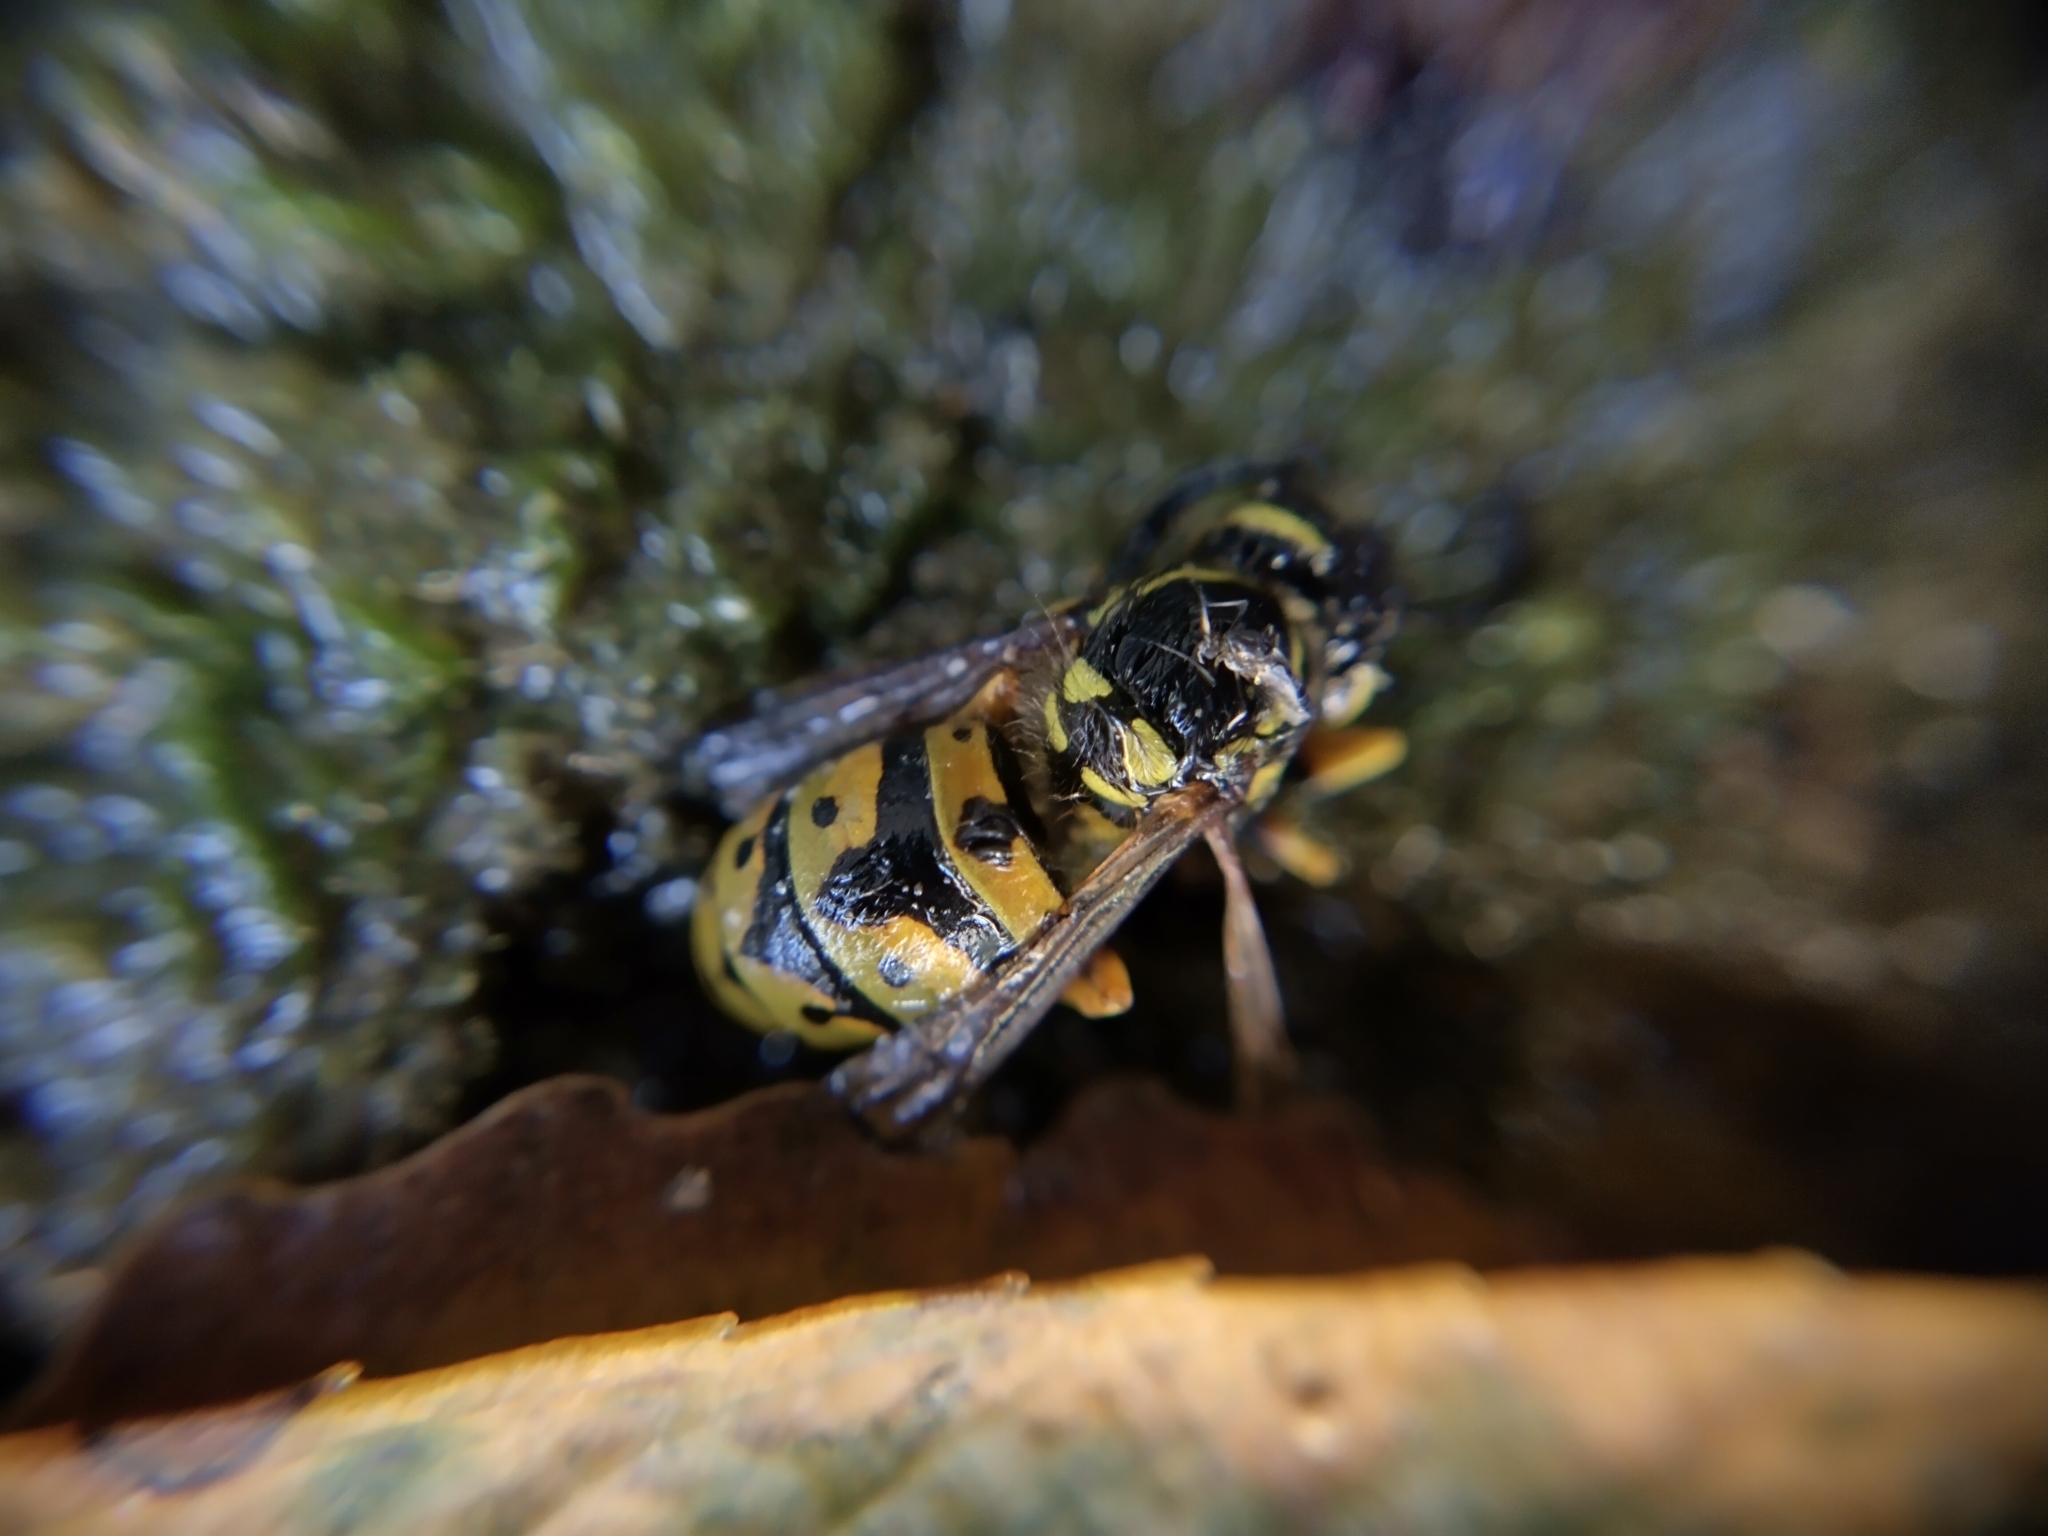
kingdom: Animalia
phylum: Arthropoda
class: Insecta
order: Hymenoptera
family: Vespidae
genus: Vespula
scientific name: Vespula germanica
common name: German wasp
